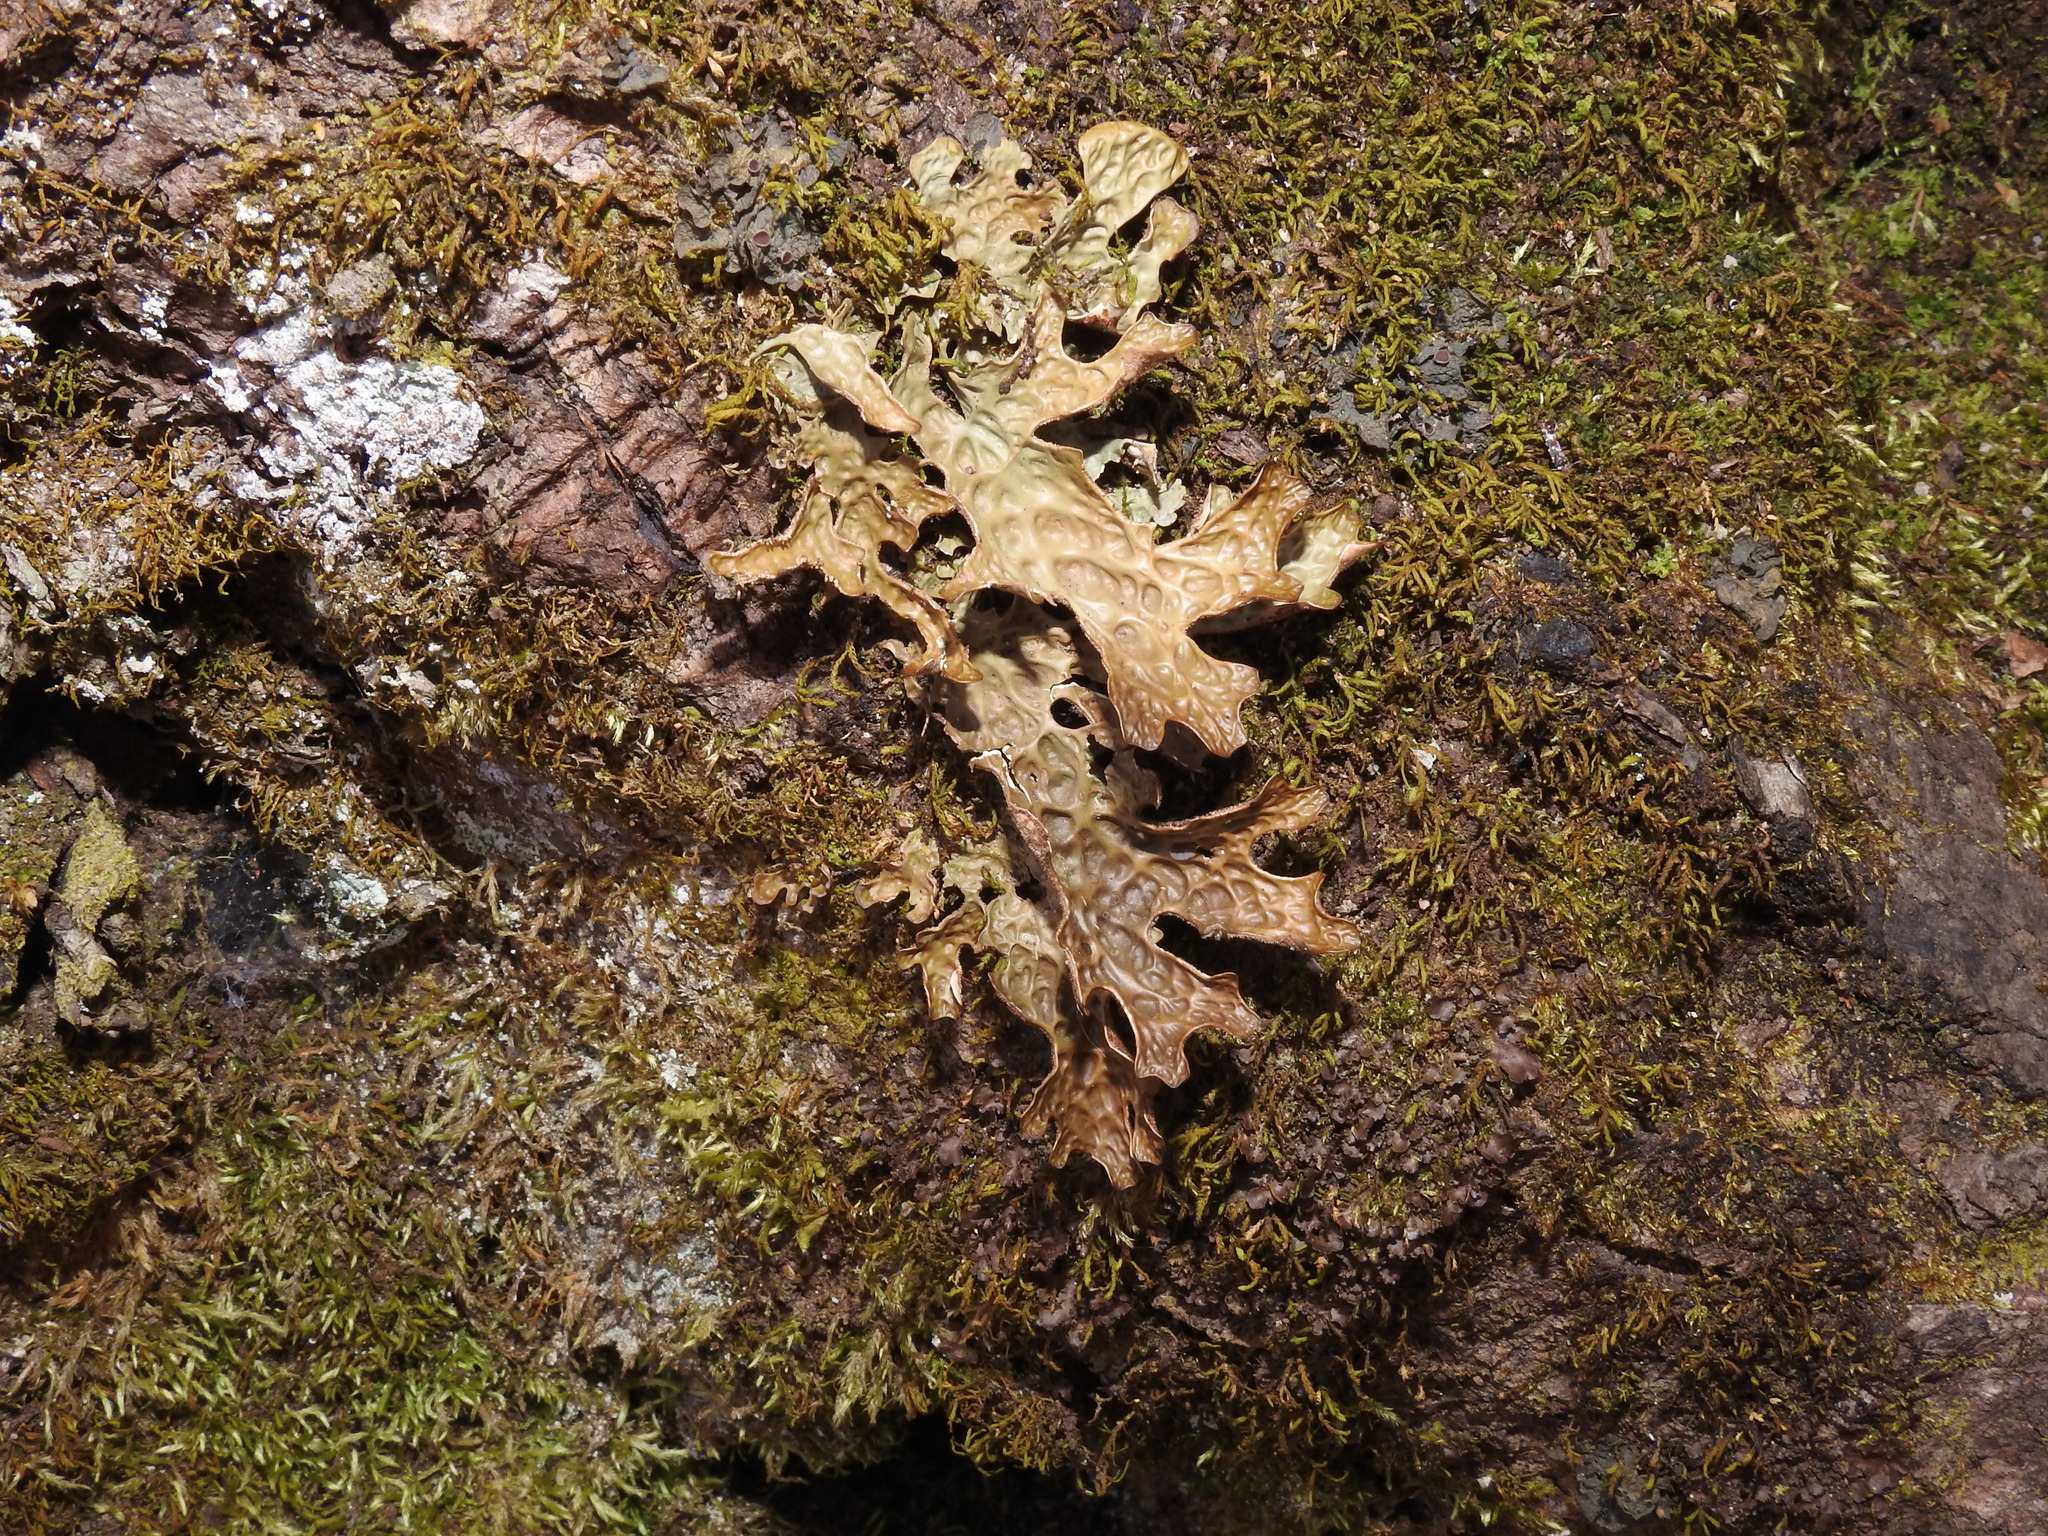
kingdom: Fungi
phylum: Ascomycota
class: Lecanoromycetes
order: Peltigerales
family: Lobariaceae
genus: Lobaria
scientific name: Lobaria pulmonaria
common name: Lungwort
